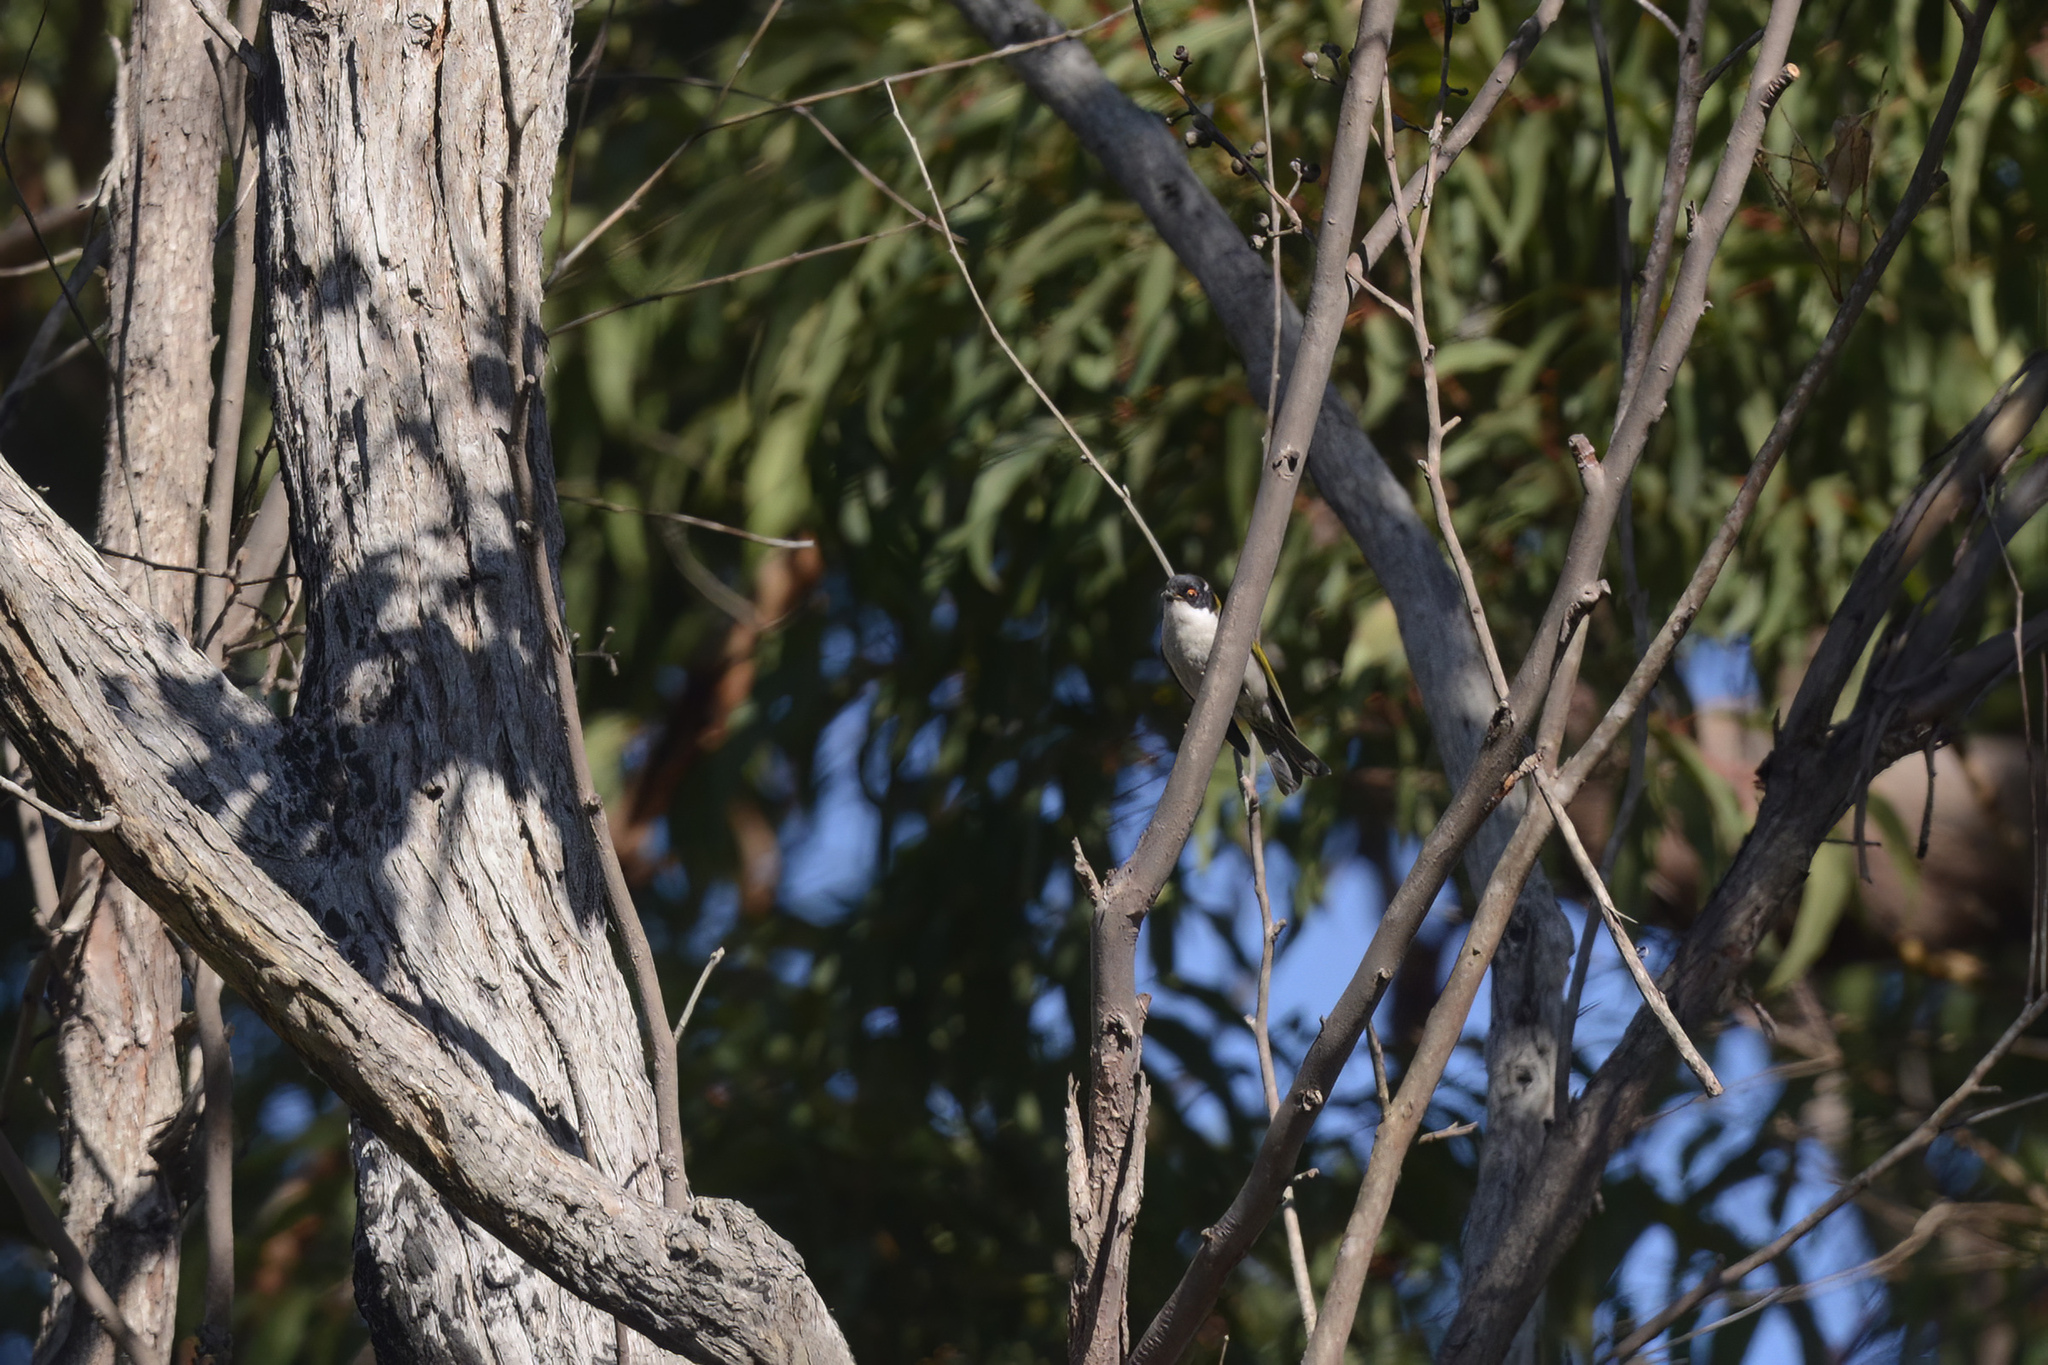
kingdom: Animalia
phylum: Chordata
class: Aves
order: Passeriformes
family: Meliphagidae
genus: Melithreptus
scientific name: Melithreptus lunatus
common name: White-naped honeyeater
